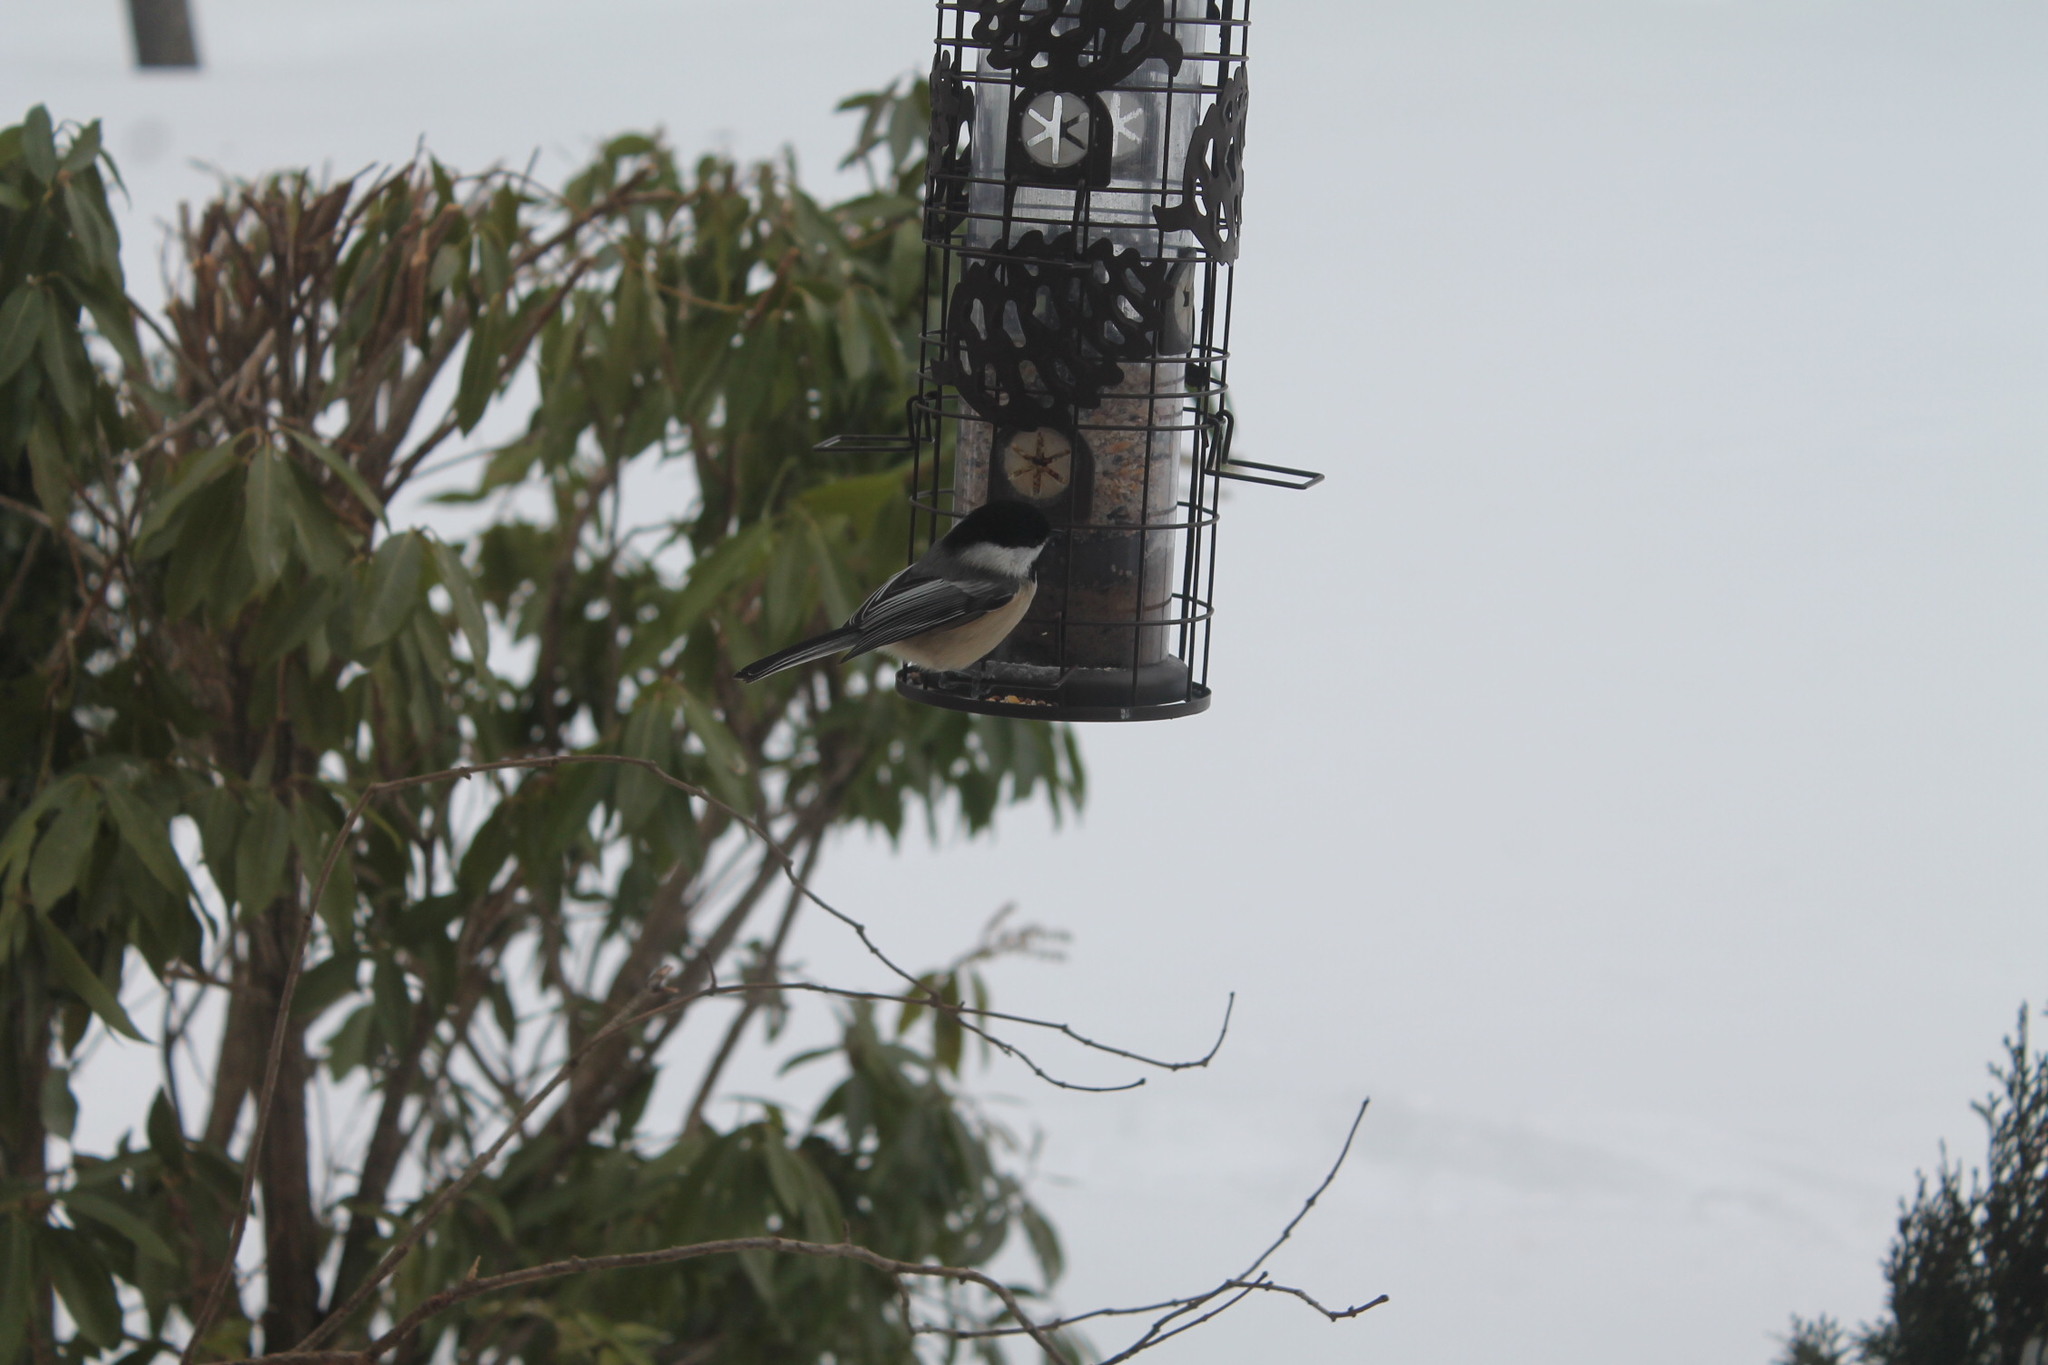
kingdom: Animalia
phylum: Chordata
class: Aves
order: Passeriformes
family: Paridae
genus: Poecile
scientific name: Poecile atricapillus
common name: Black-capped chickadee
